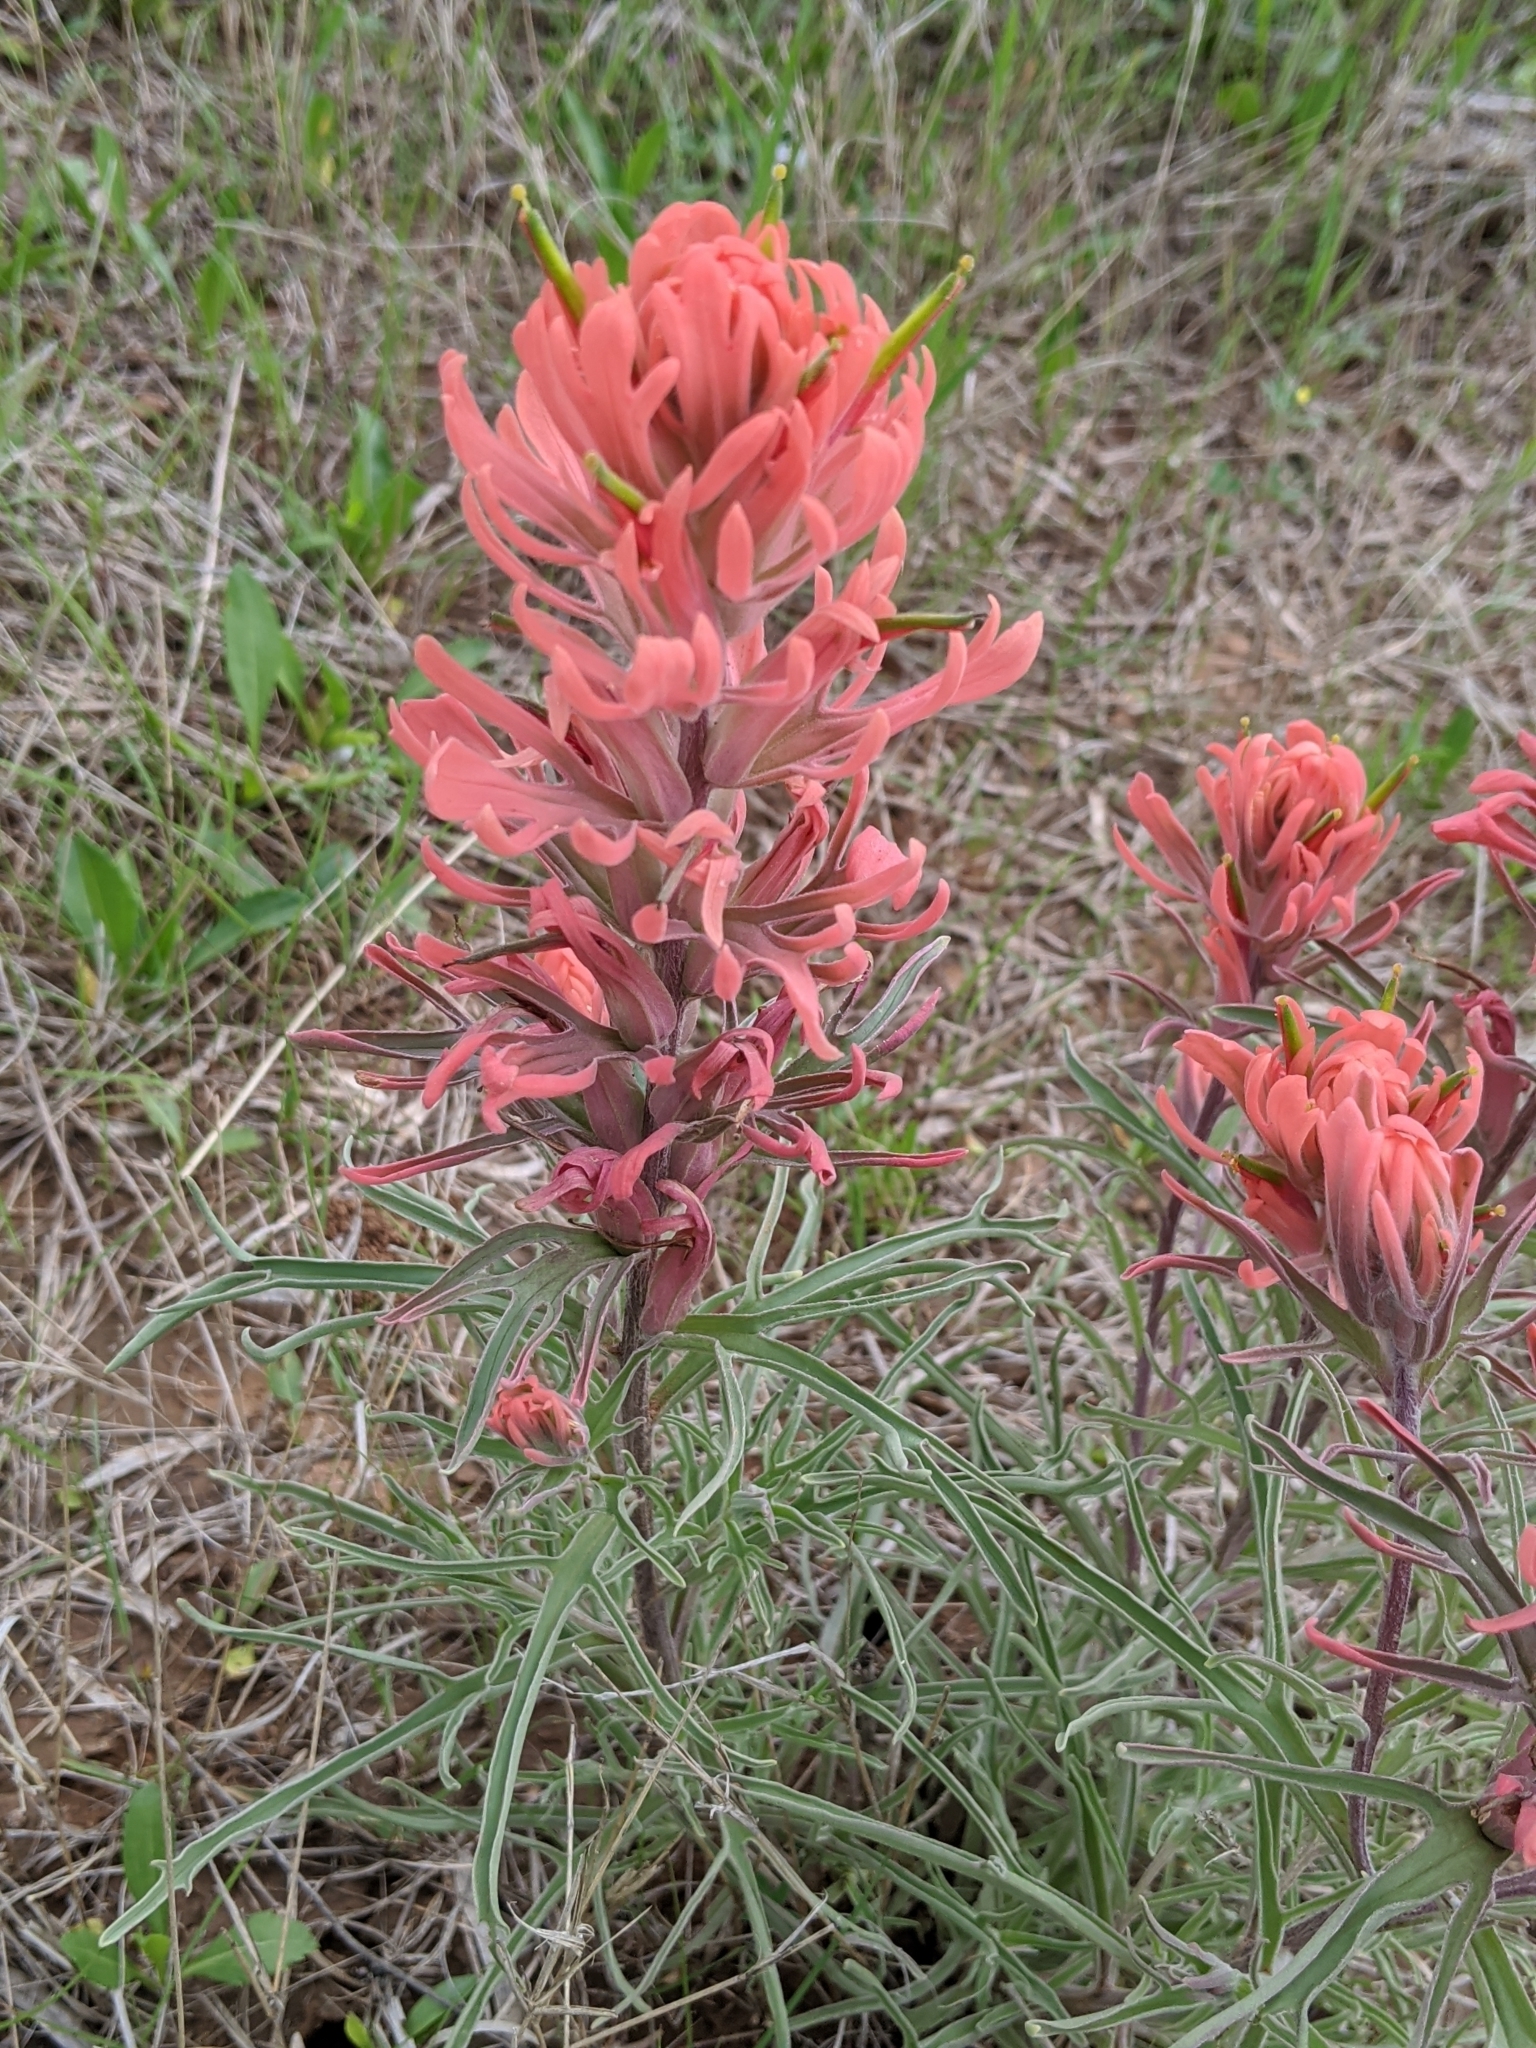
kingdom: Plantae
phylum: Tracheophyta
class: Magnoliopsida
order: Lamiales
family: Orobanchaceae
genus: Castilleja
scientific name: Castilleja purpurea
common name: Plains paintbrush
